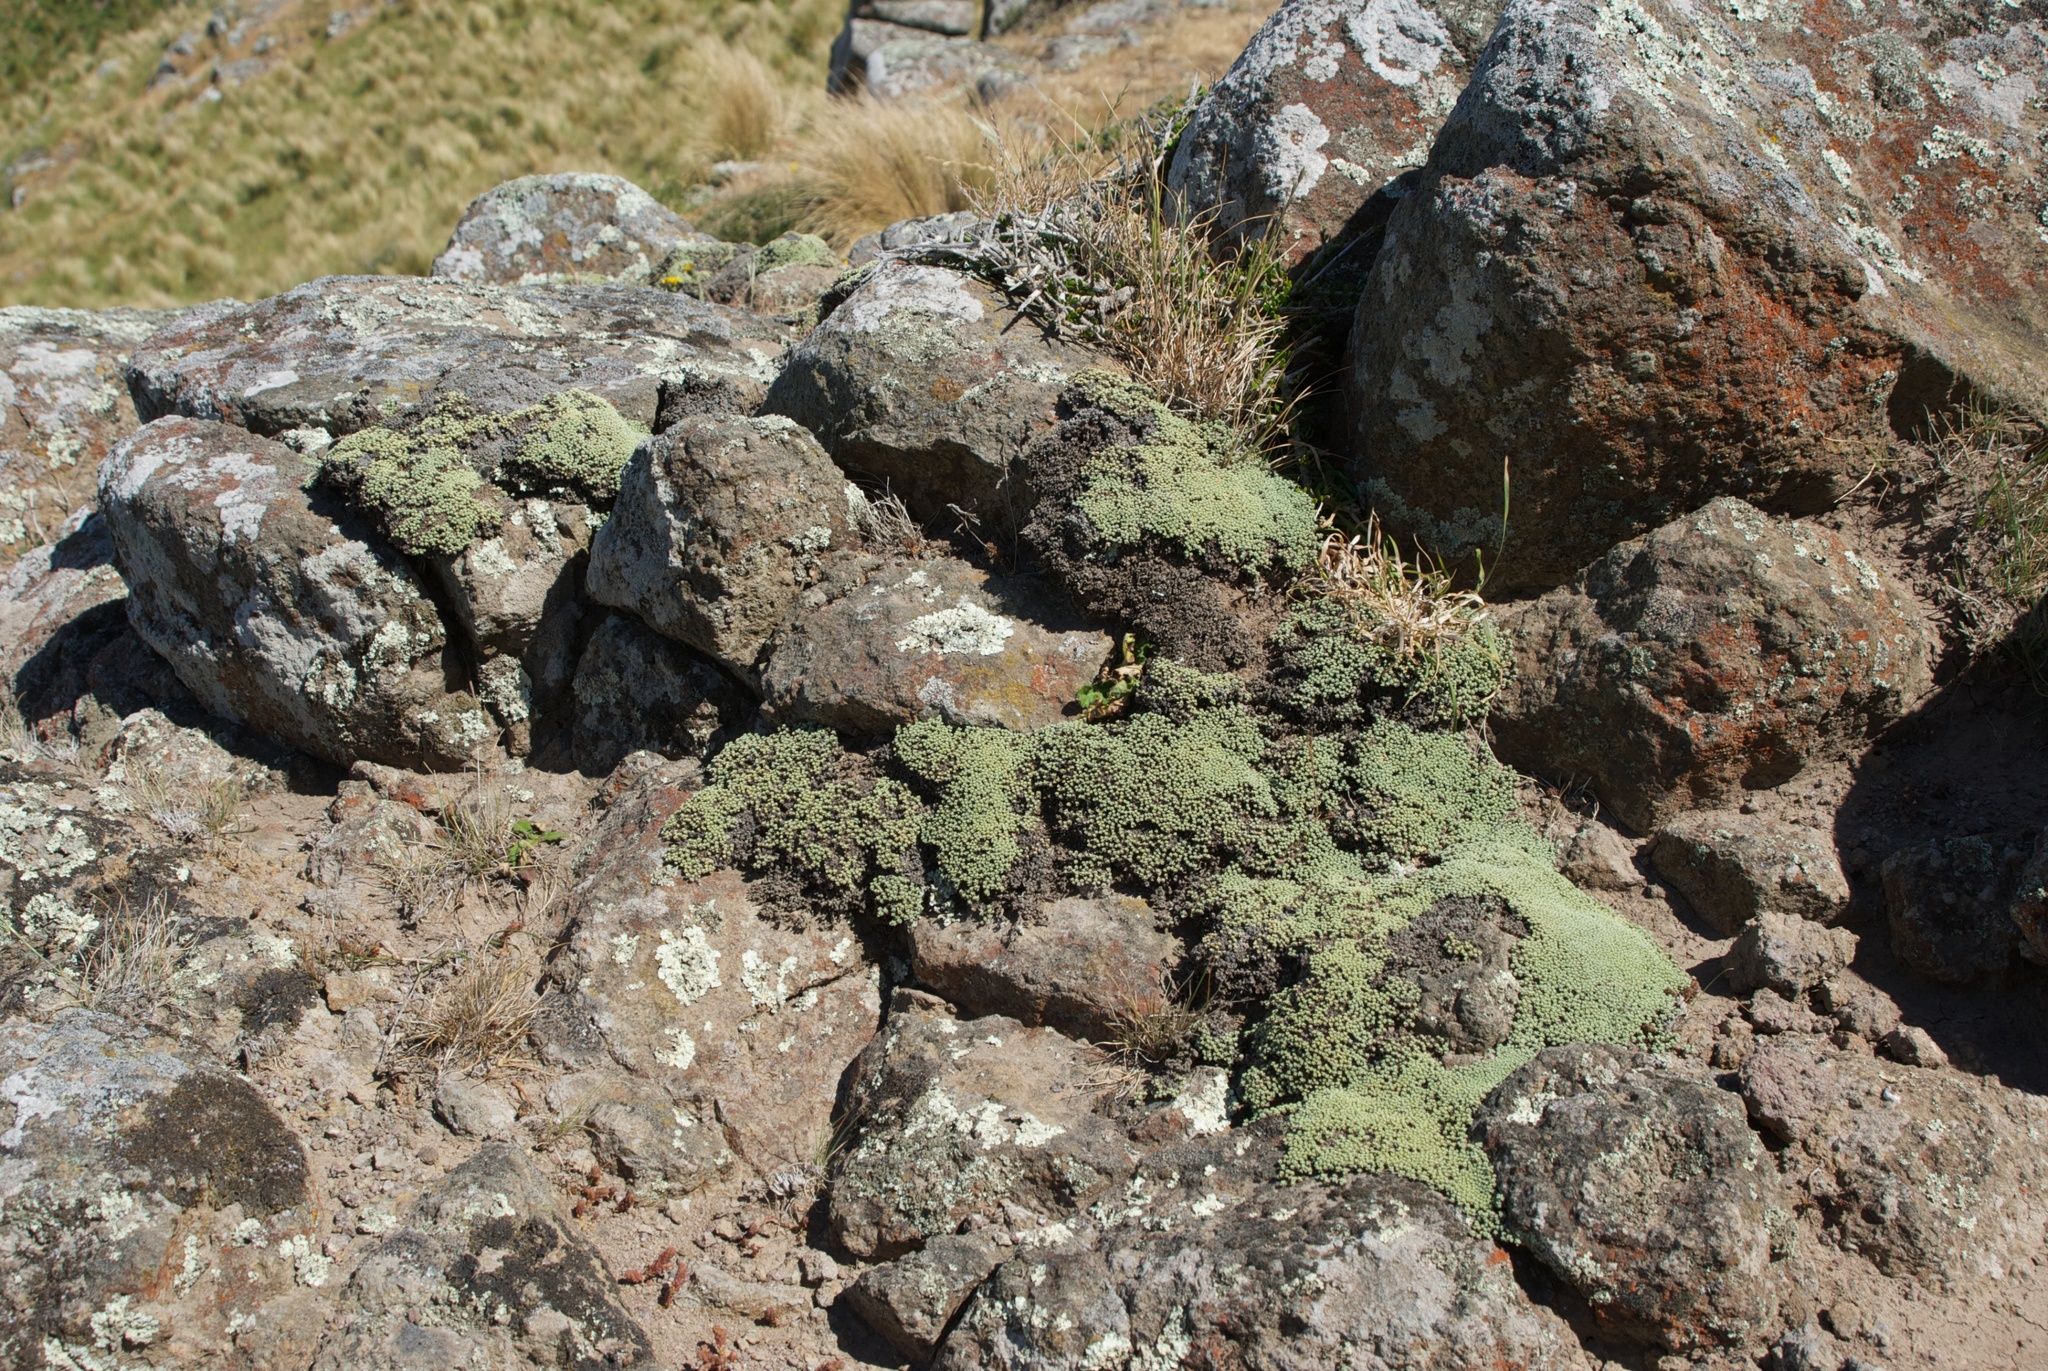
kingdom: Plantae
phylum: Tracheophyta
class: Magnoliopsida
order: Asterales
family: Asteraceae
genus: Raoulia
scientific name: Raoulia australis
